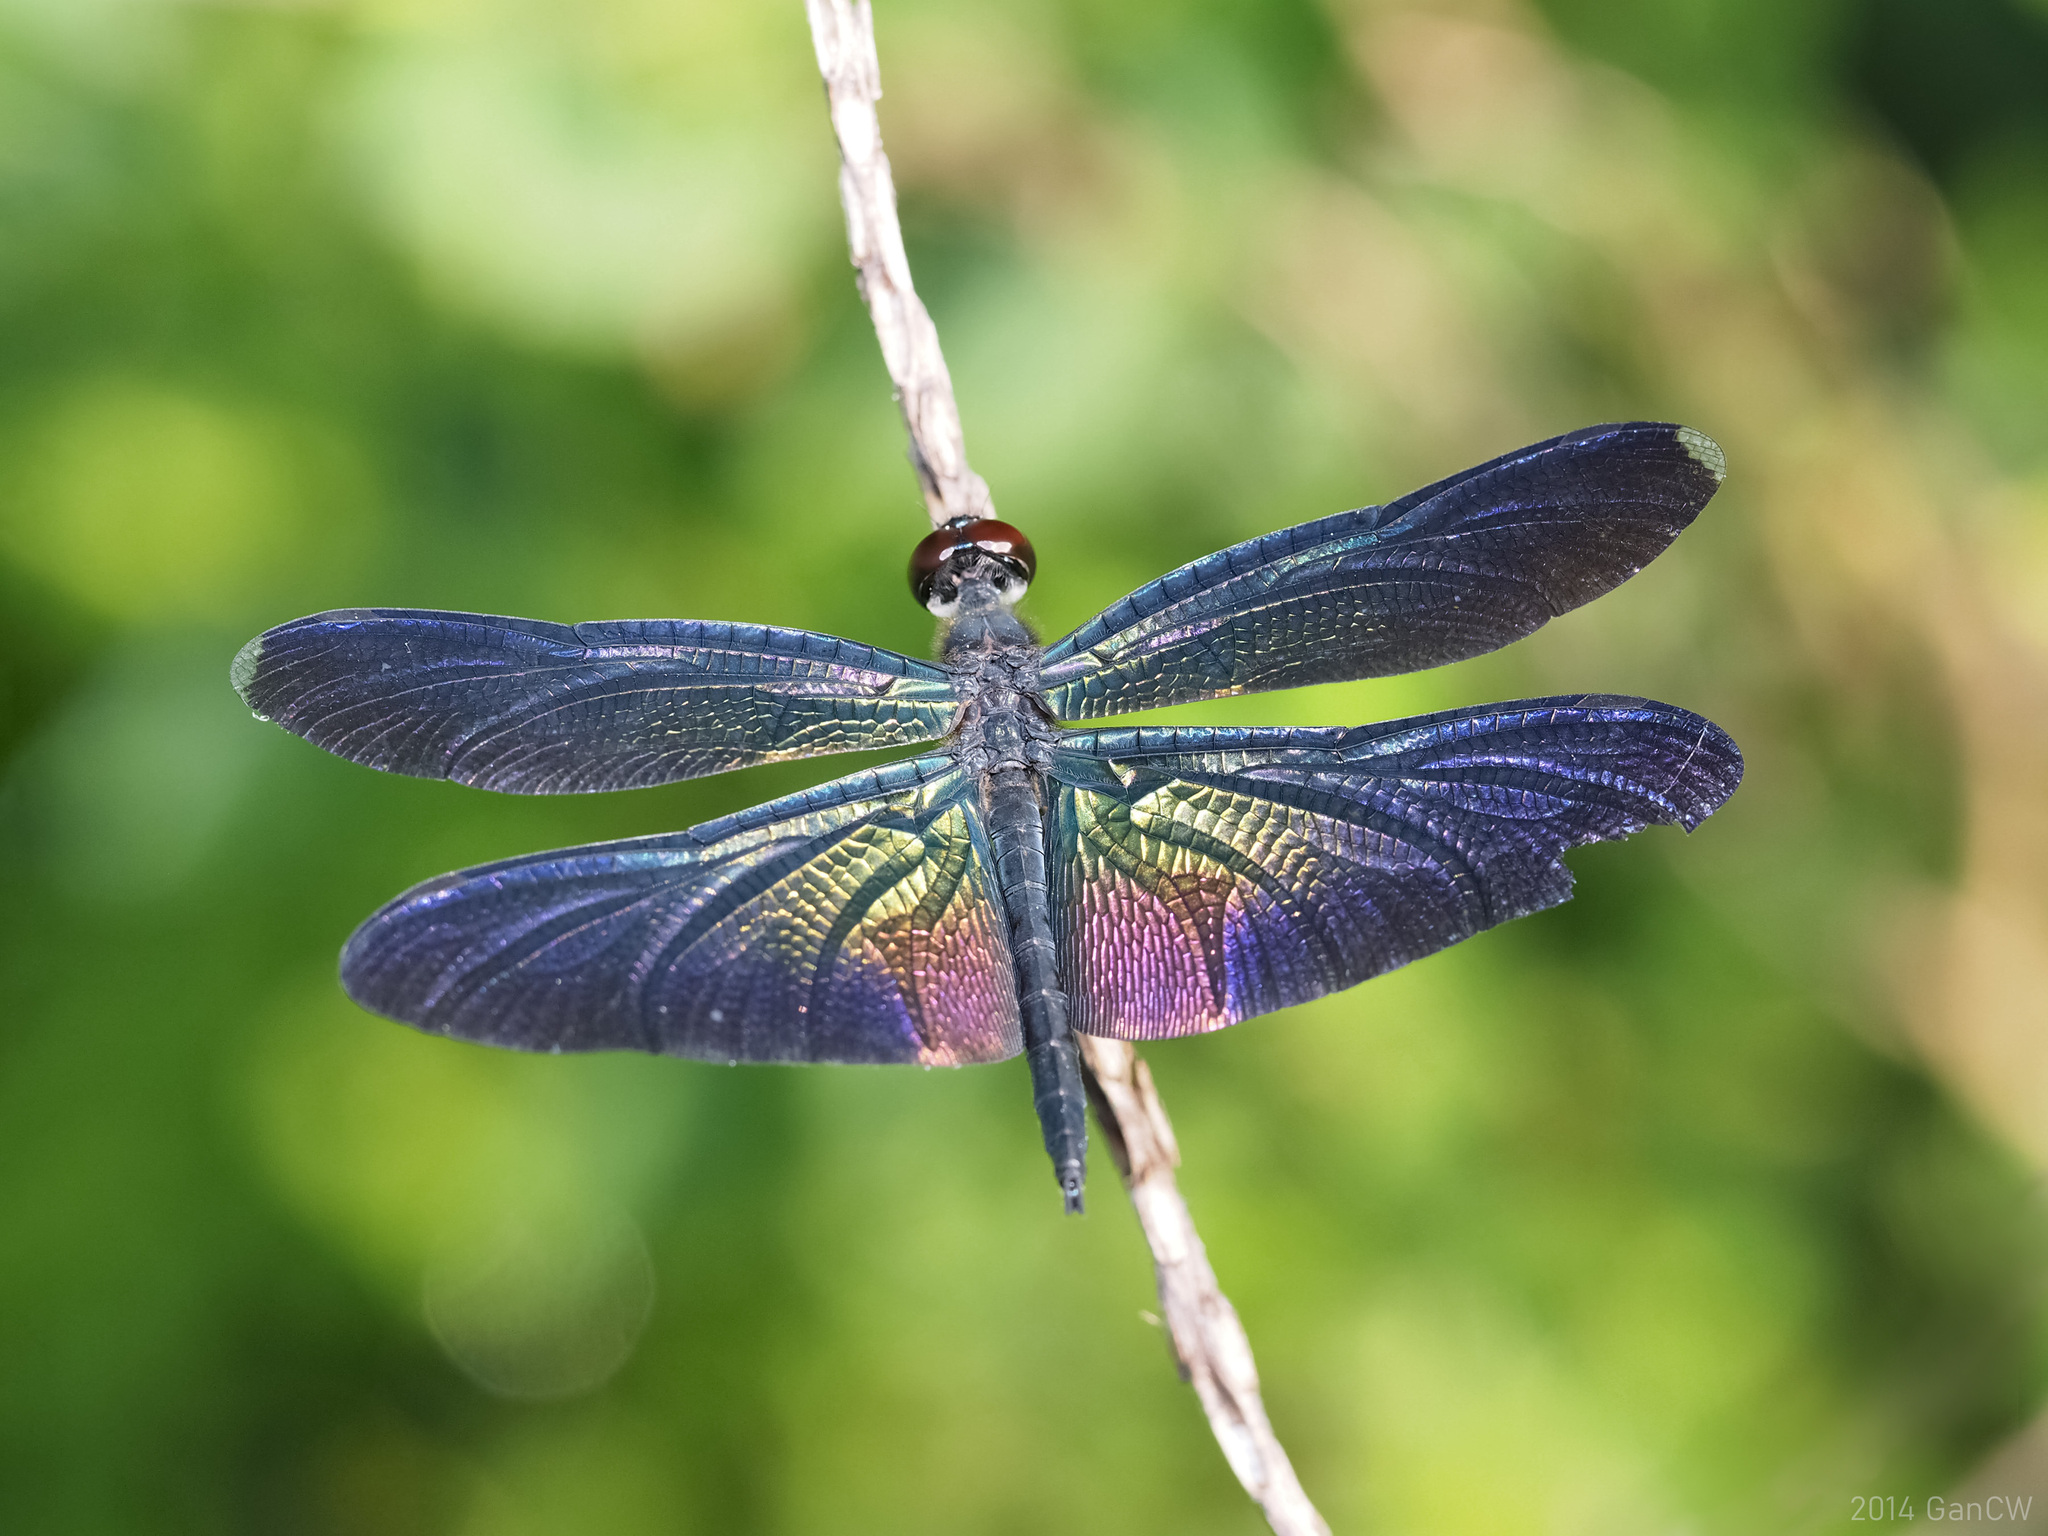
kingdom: Animalia
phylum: Arthropoda
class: Insecta
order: Odonata
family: Libellulidae
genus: Rhyothemis
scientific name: Rhyothemis plutonia
